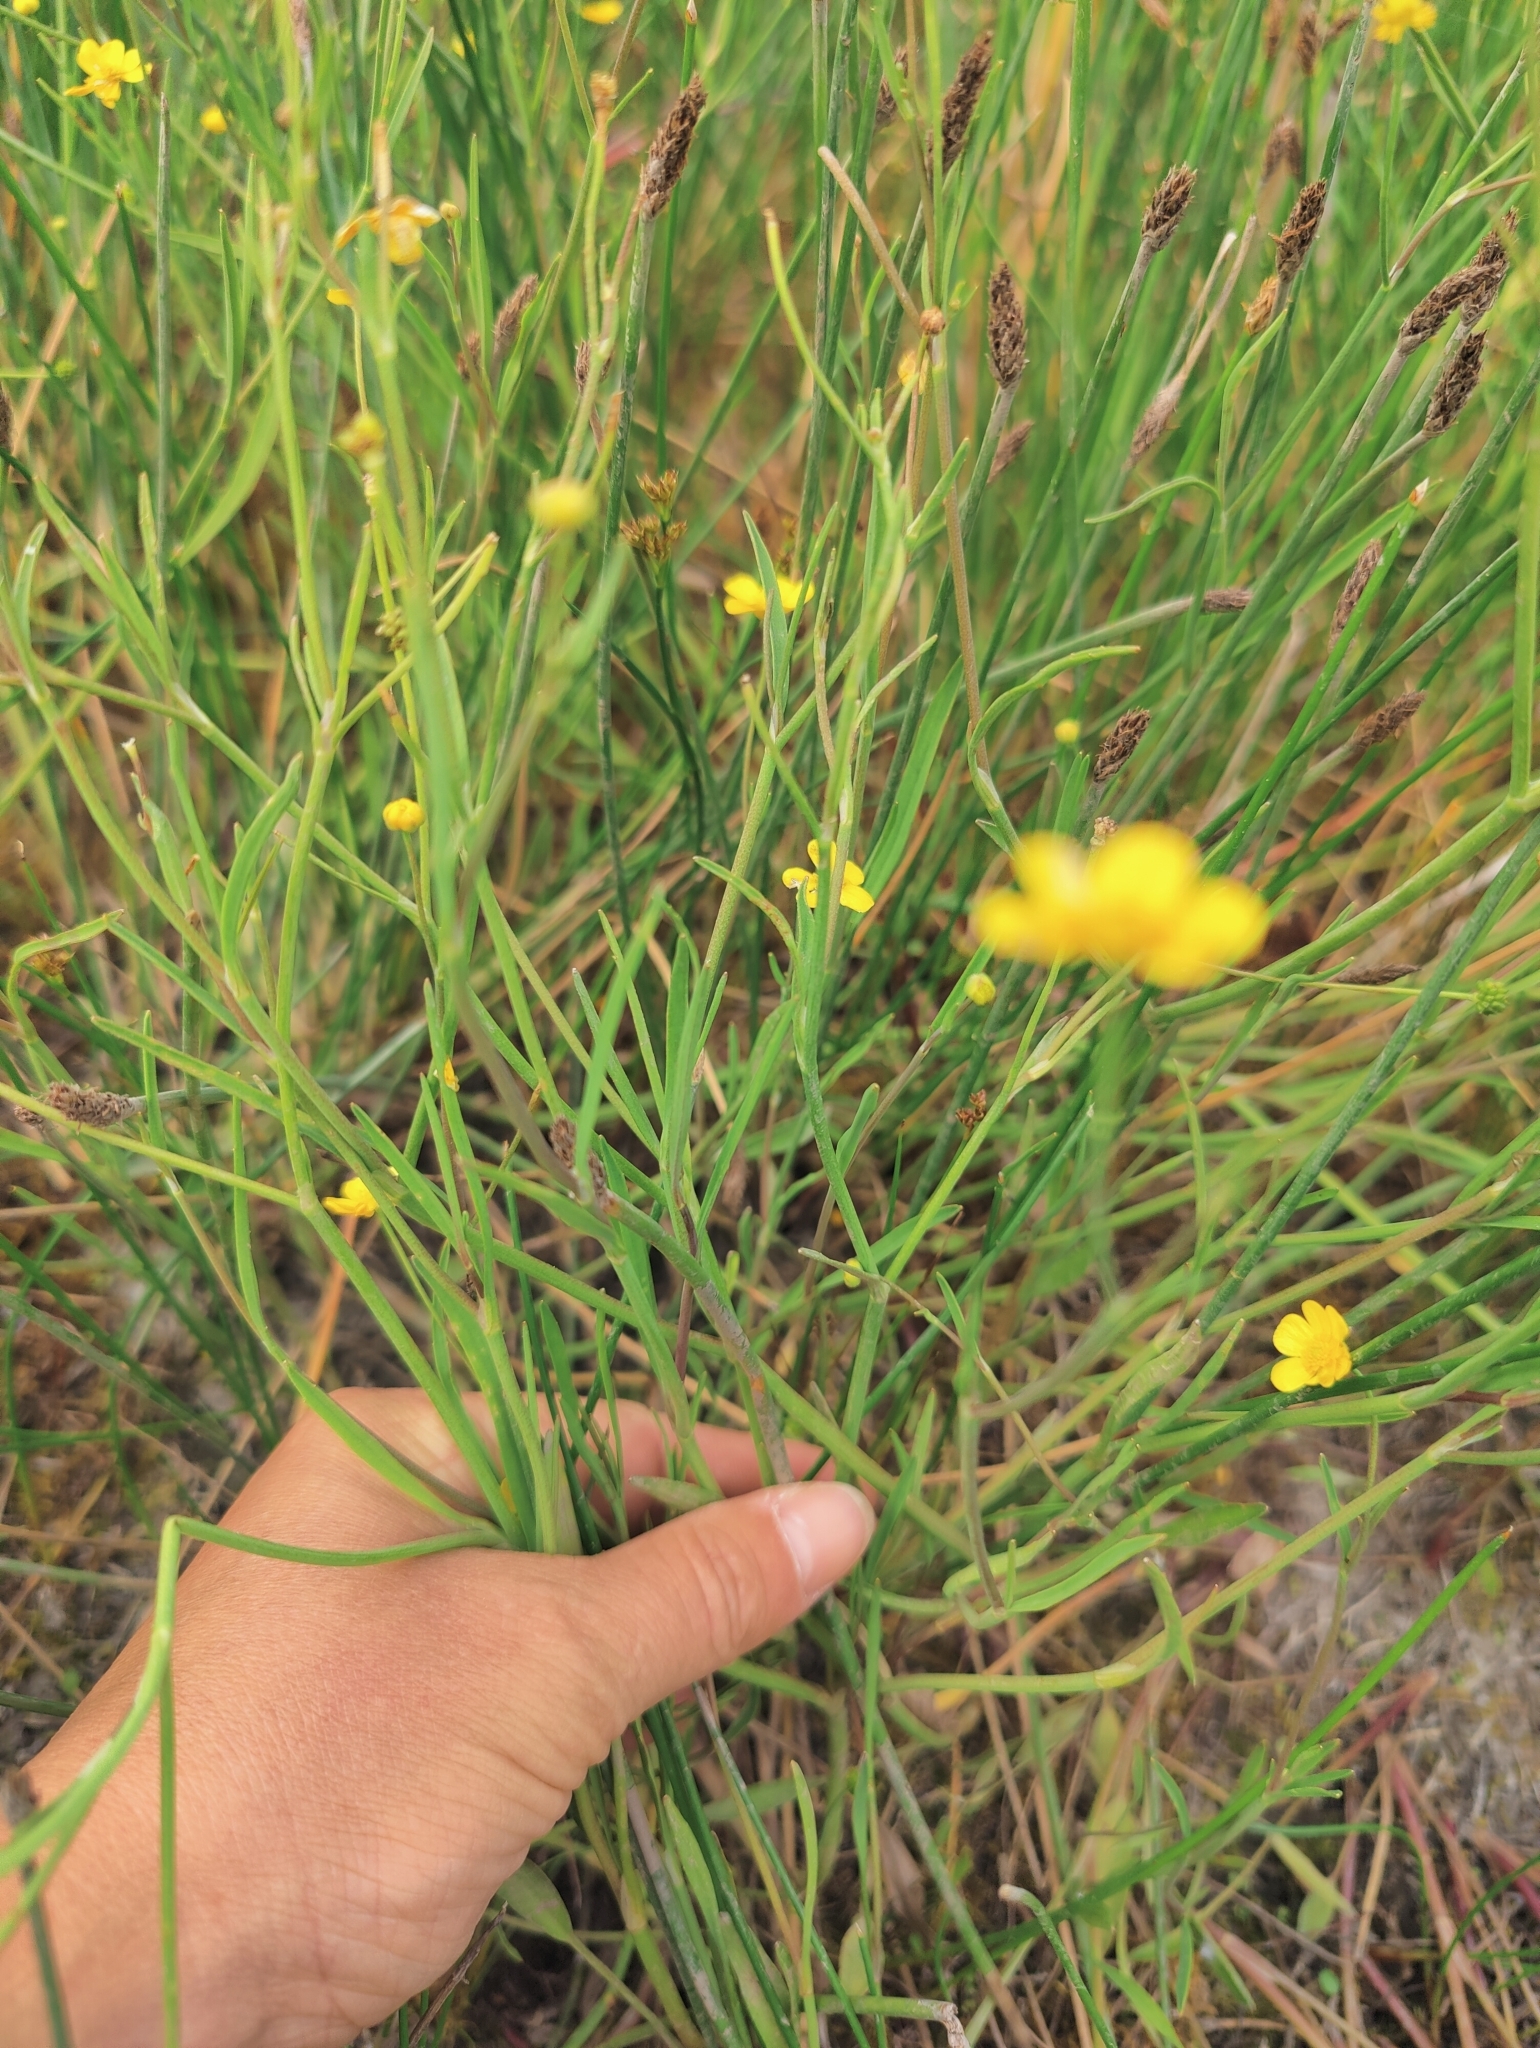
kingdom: Plantae
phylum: Tracheophyta
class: Magnoliopsida
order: Ranunculales
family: Ranunculaceae
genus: Ranunculus
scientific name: Ranunculus flammula
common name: Lesser spearwort
